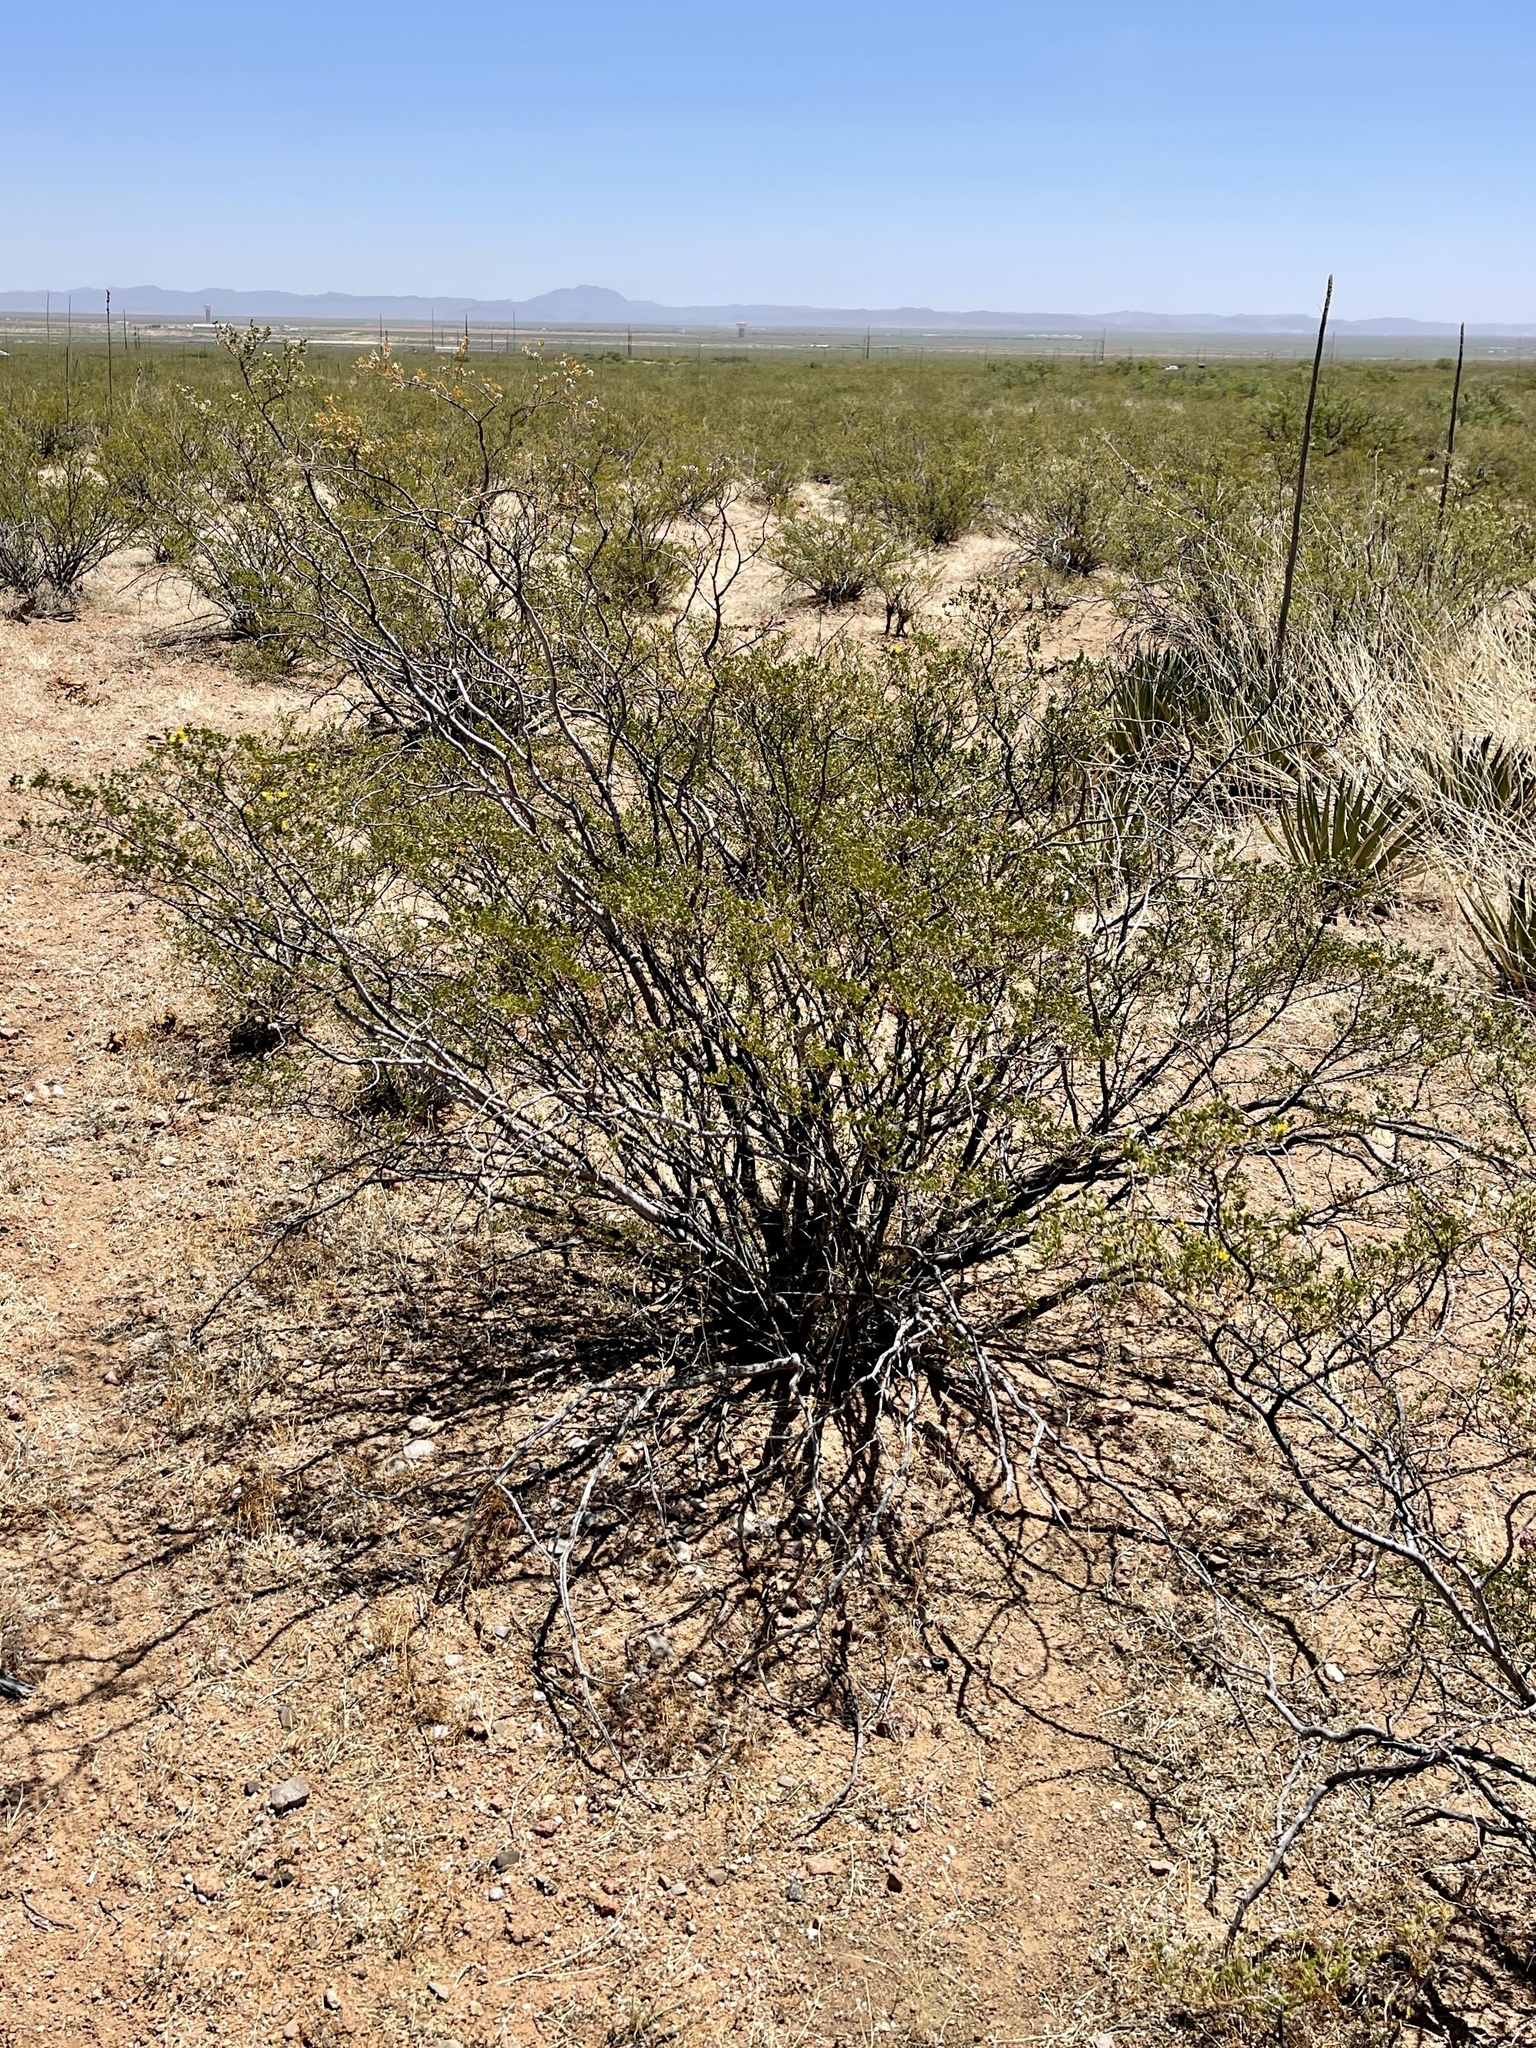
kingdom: Plantae
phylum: Tracheophyta
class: Magnoliopsida
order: Zygophyllales
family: Zygophyllaceae
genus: Larrea
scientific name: Larrea tridentata
